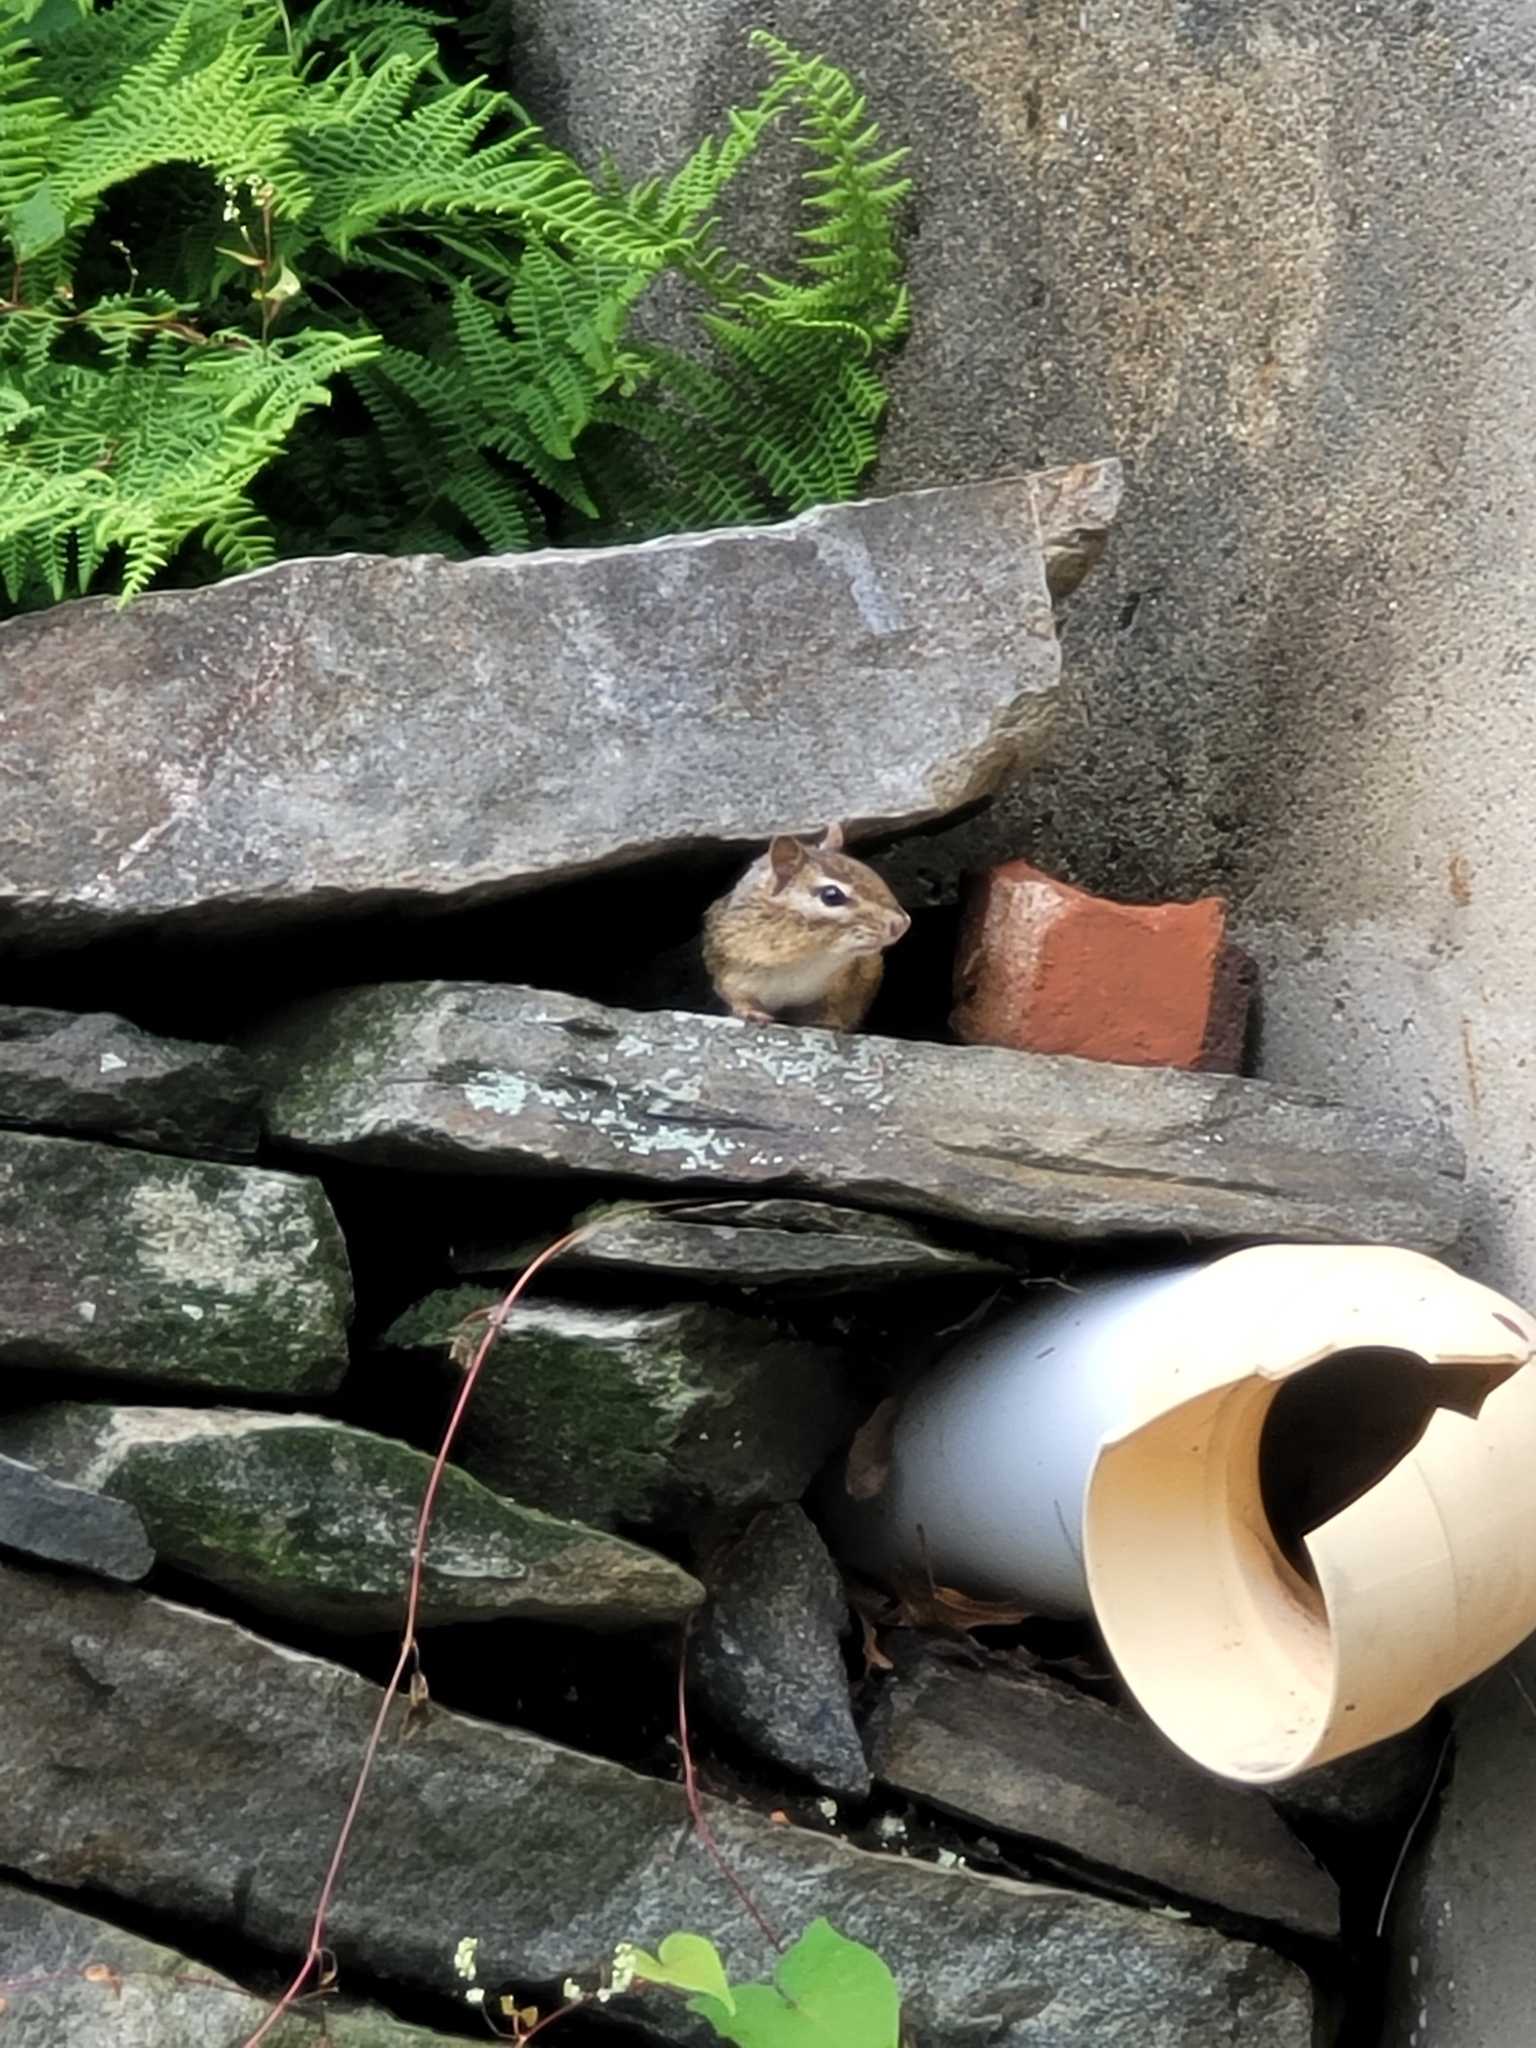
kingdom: Animalia
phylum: Chordata
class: Mammalia
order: Rodentia
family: Sciuridae
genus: Tamias
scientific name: Tamias striatus
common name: Eastern chipmunk
